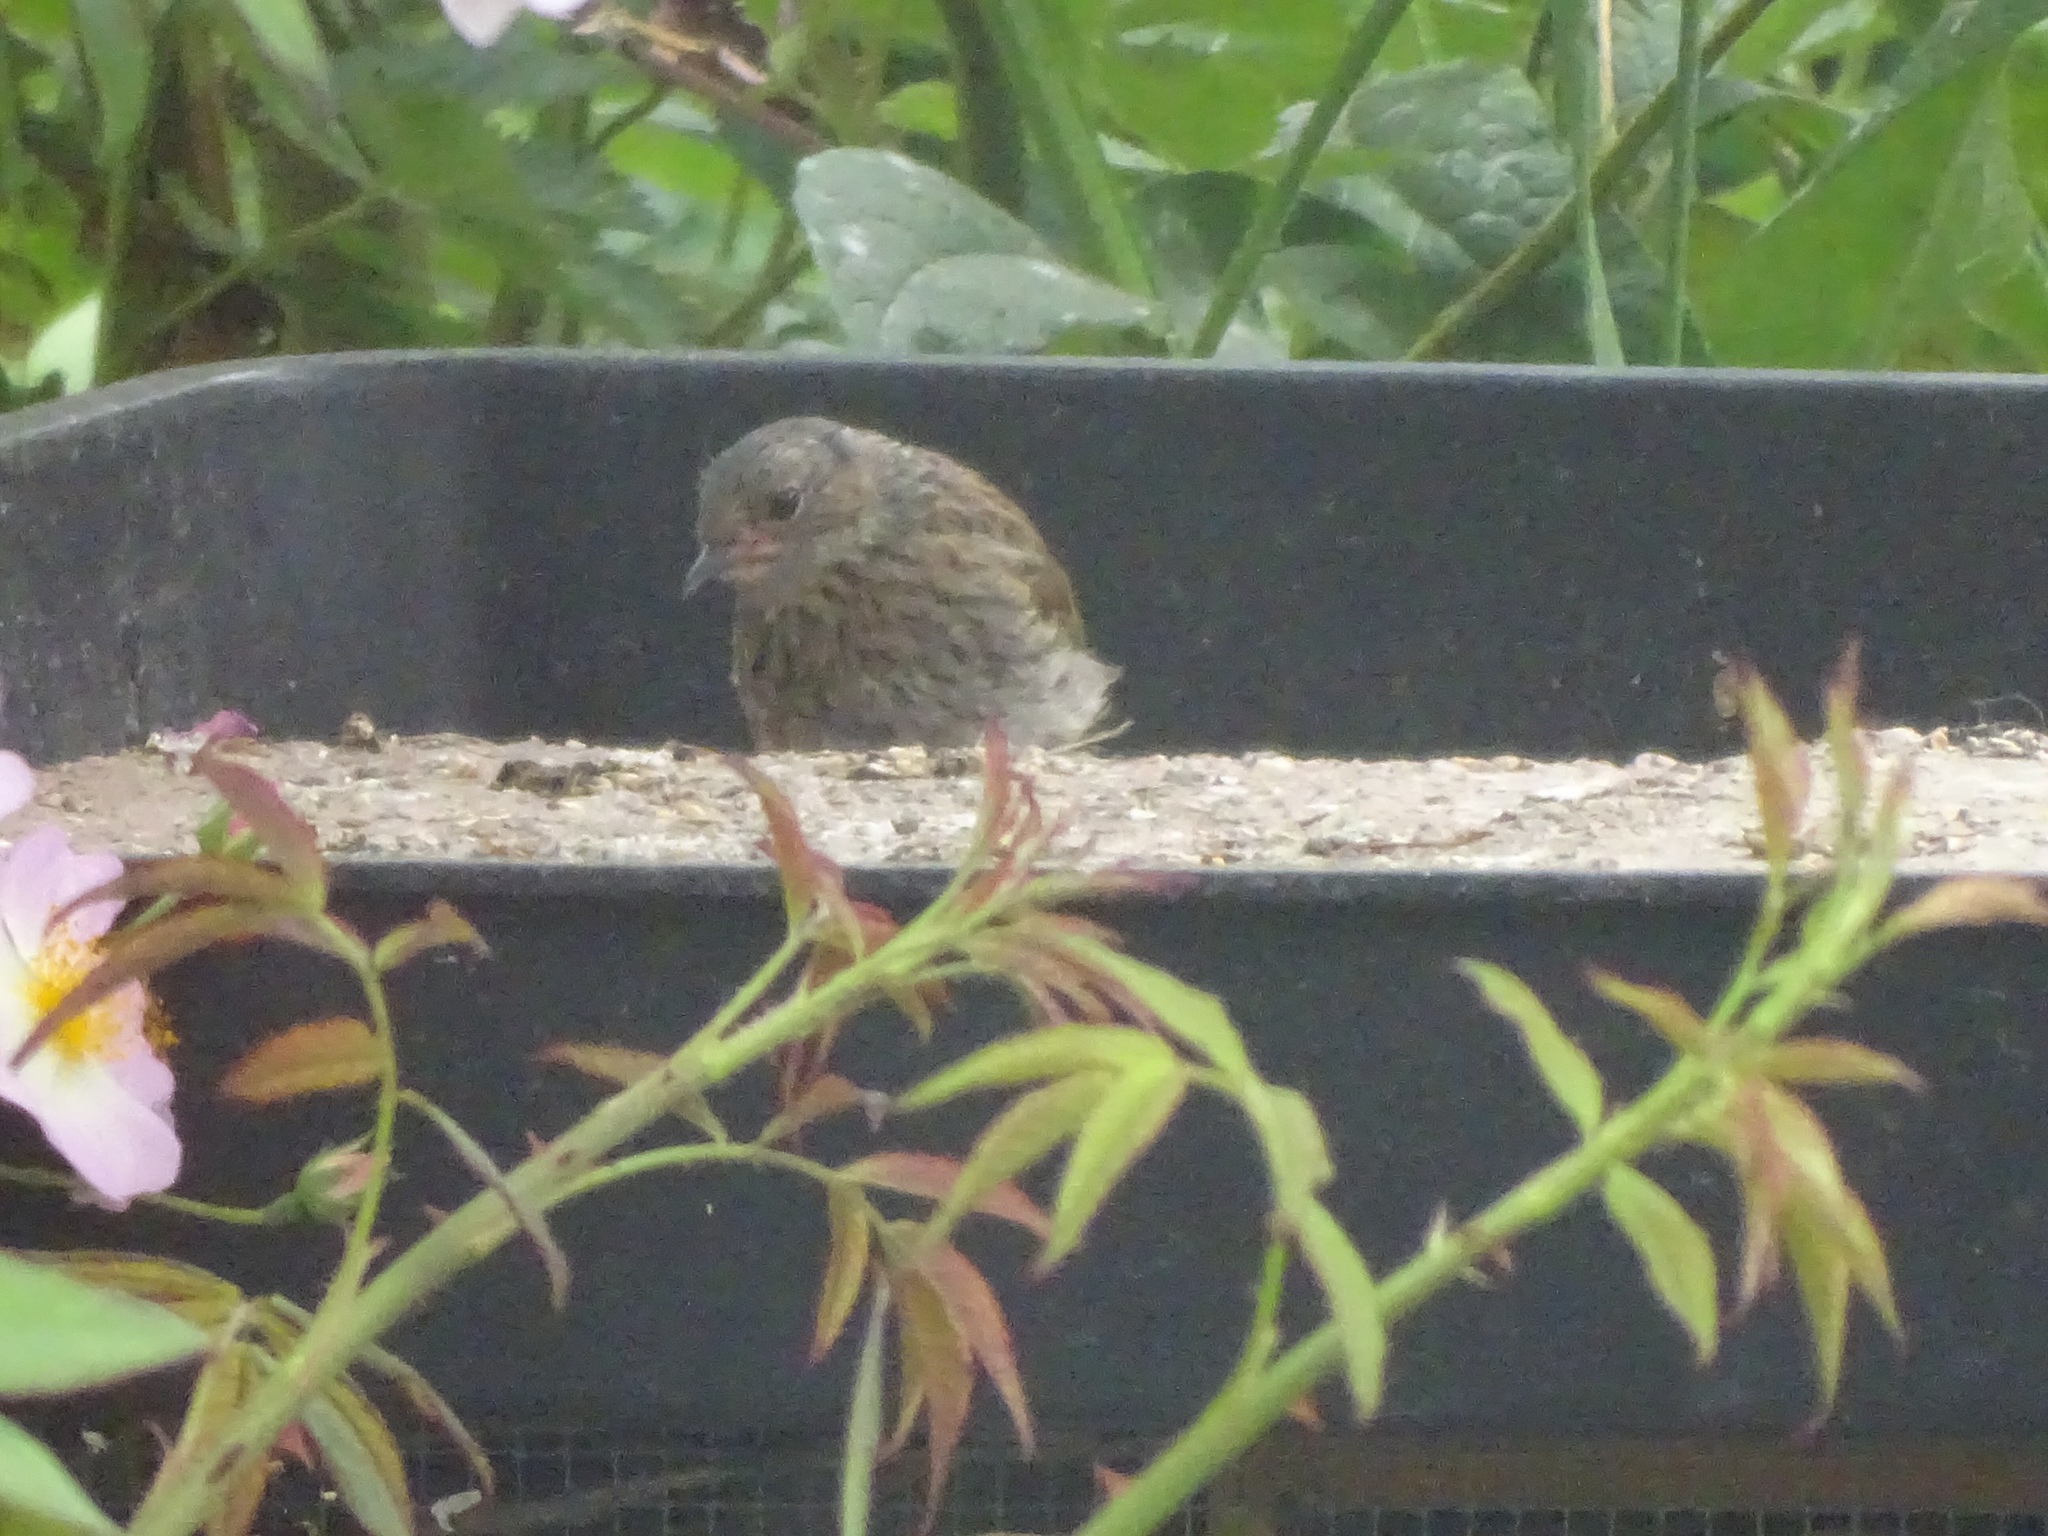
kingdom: Animalia
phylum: Chordata
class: Aves
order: Passeriformes
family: Prunellidae
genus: Prunella
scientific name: Prunella modularis
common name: Dunnock
